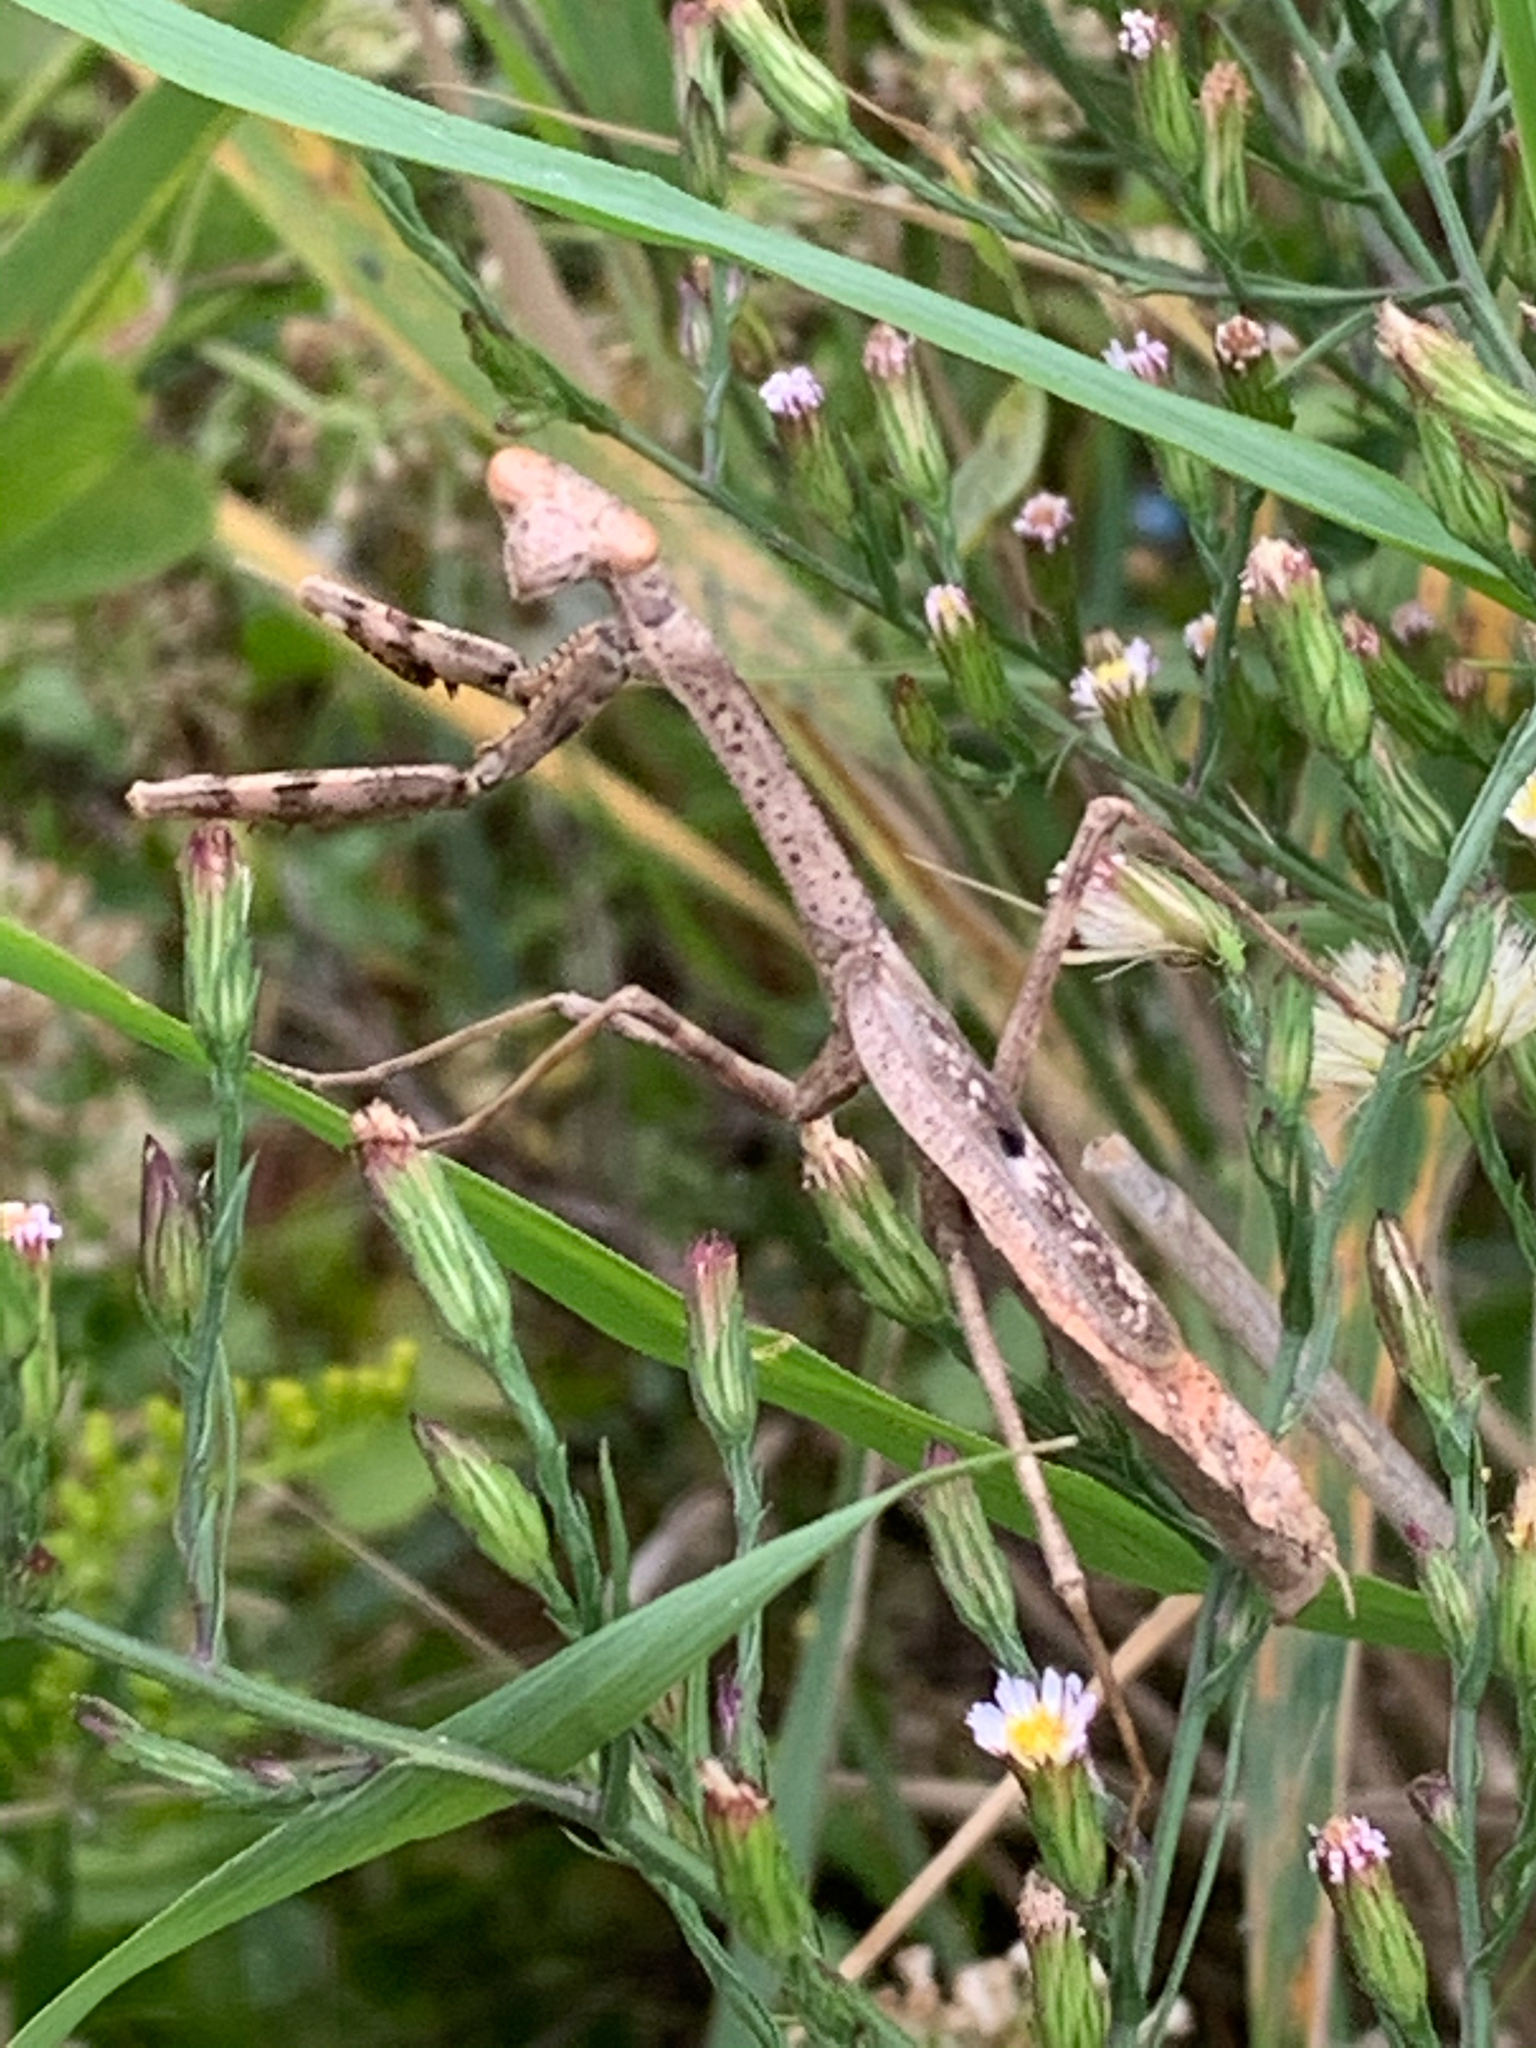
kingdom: Animalia
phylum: Arthropoda
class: Insecta
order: Mantodea
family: Mantidae
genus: Stagmomantis
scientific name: Stagmomantis carolina
